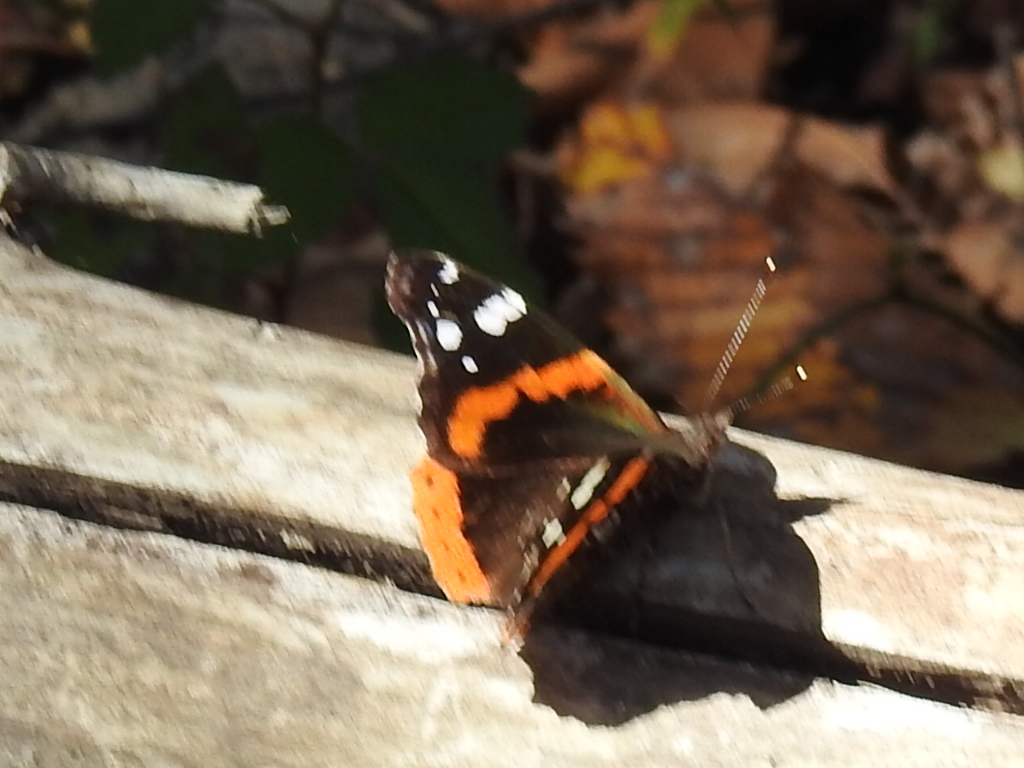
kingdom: Animalia
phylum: Arthropoda
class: Insecta
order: Lepidoptera
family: Nymphalidae
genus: Vanessa
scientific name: Vanessa atalanta
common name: Red admiral
